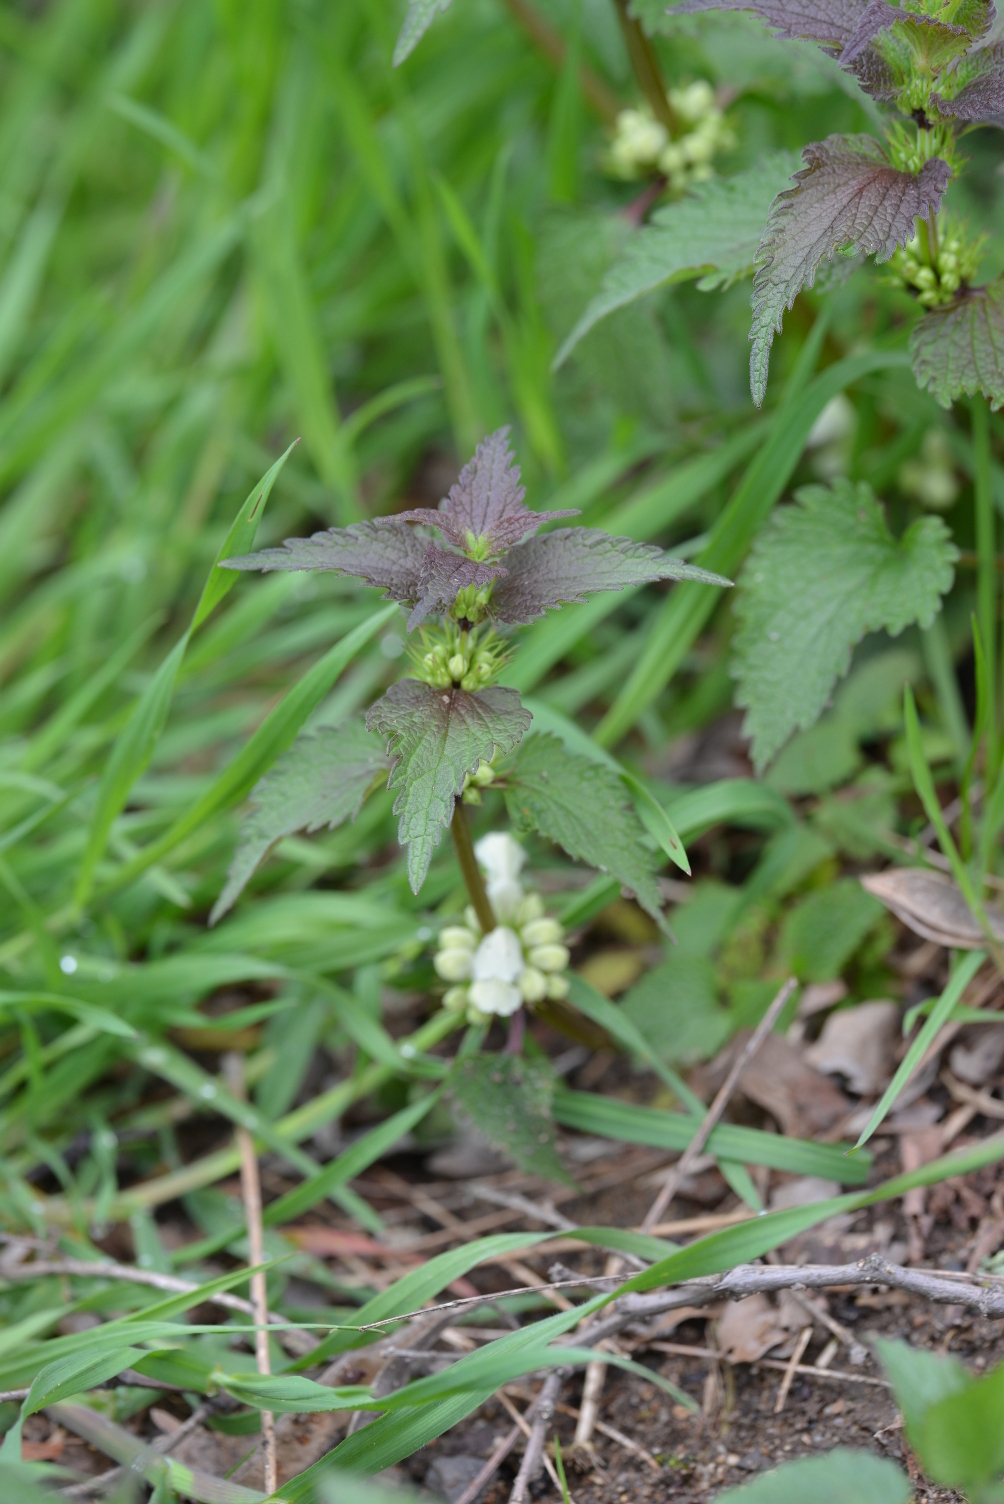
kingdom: Plantae
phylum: Tracheophyta
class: Magnoliopsida
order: Lamiales
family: Lamiaceae
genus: Lamium
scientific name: Lamium album
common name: White dead-nettle
